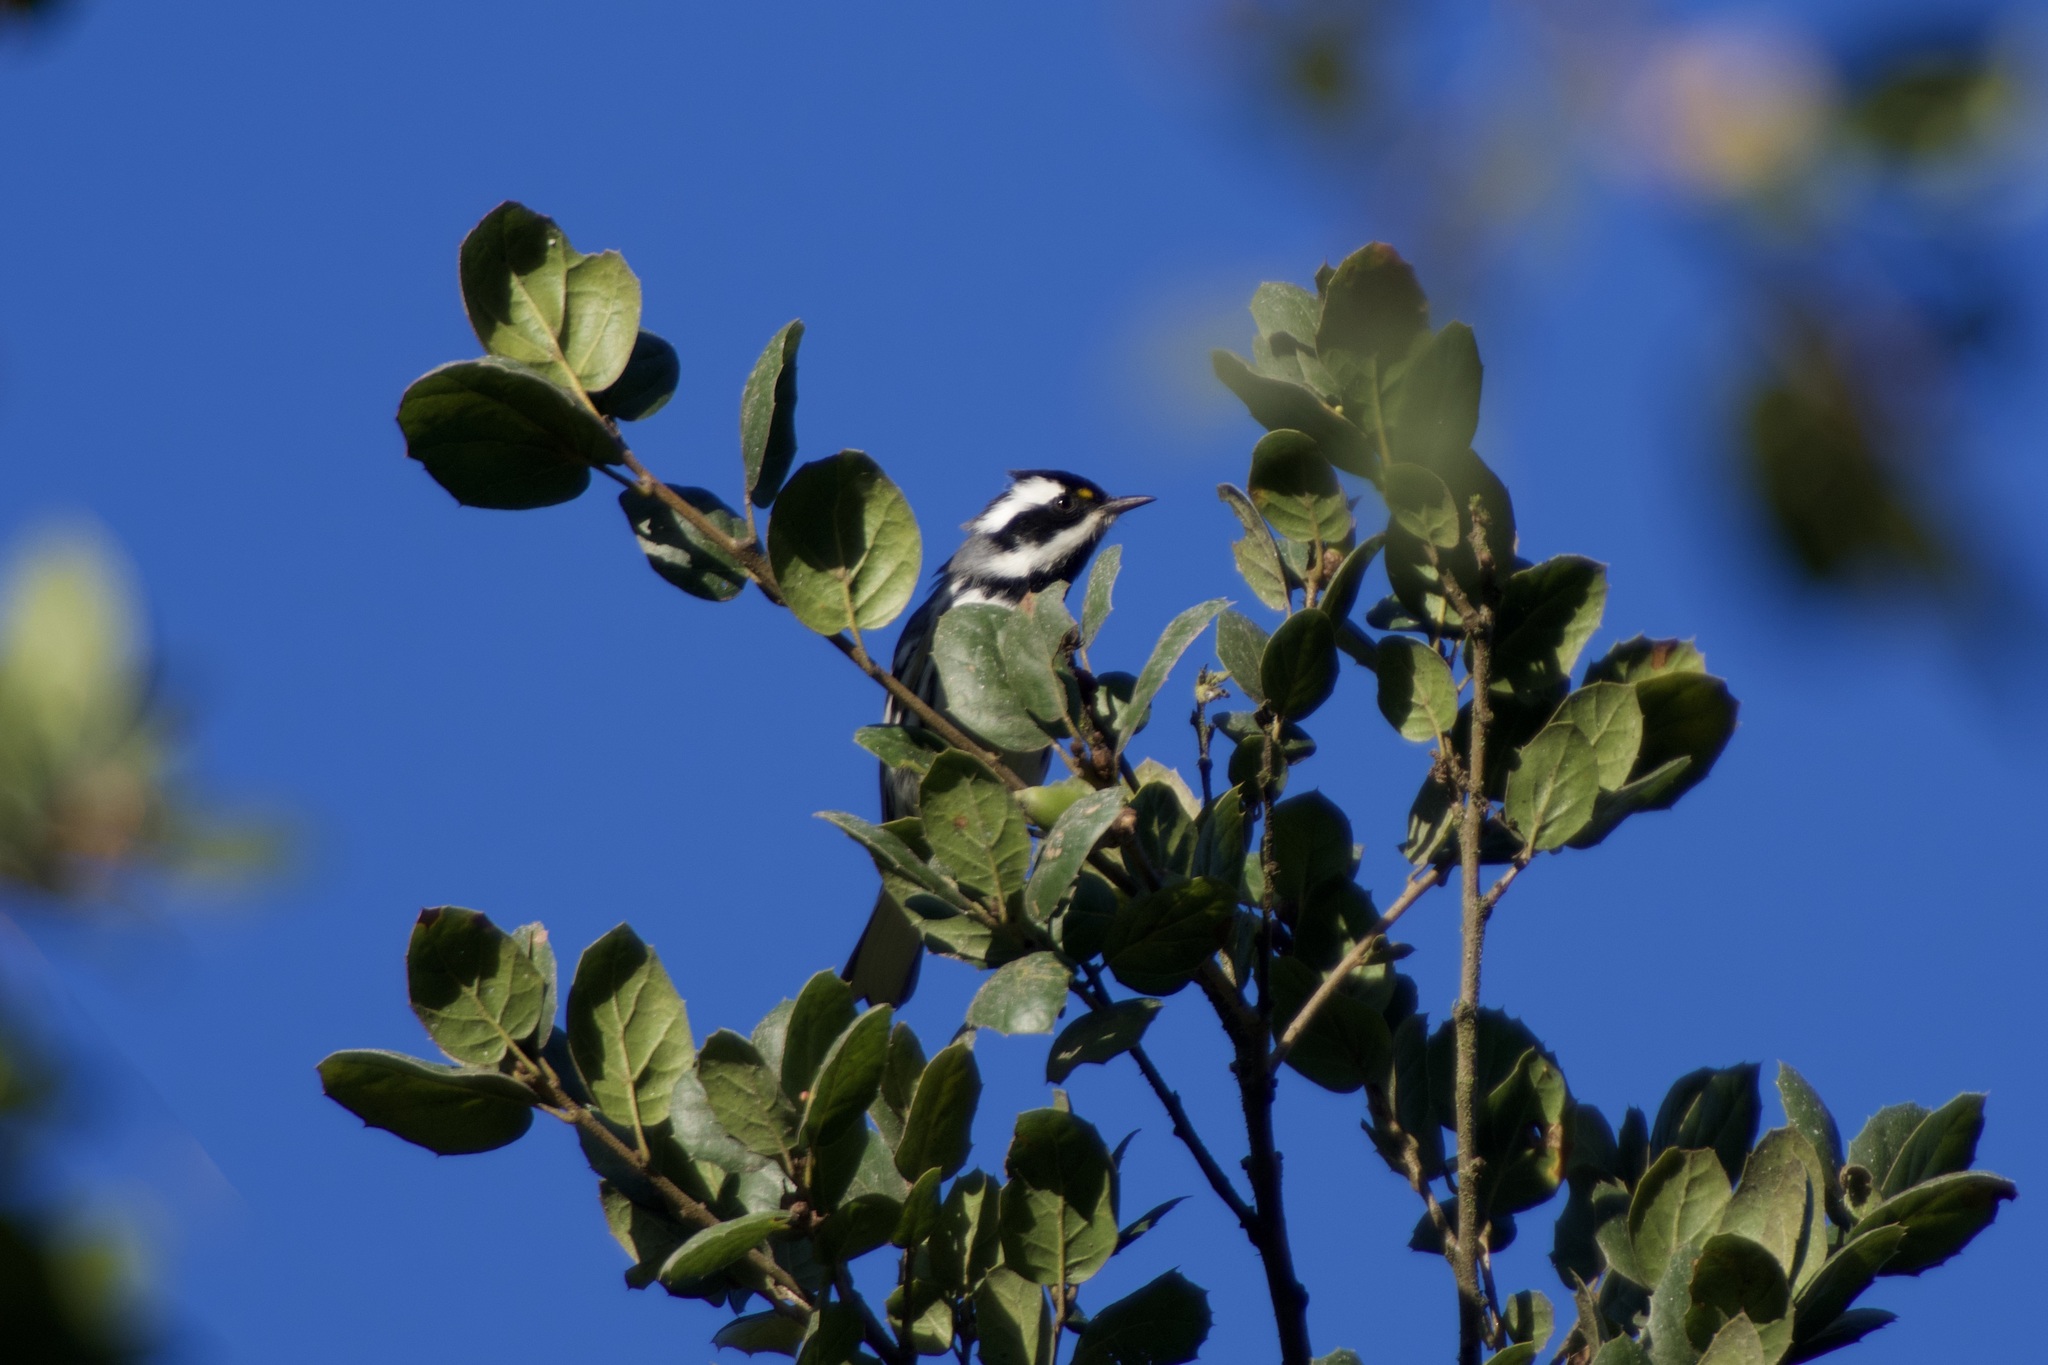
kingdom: Animalia
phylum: Chordata
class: Aves
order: Passeriformes
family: Parulidae
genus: Setophaga
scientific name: Setophaga nigrescens
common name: Black-throated gray warbler
